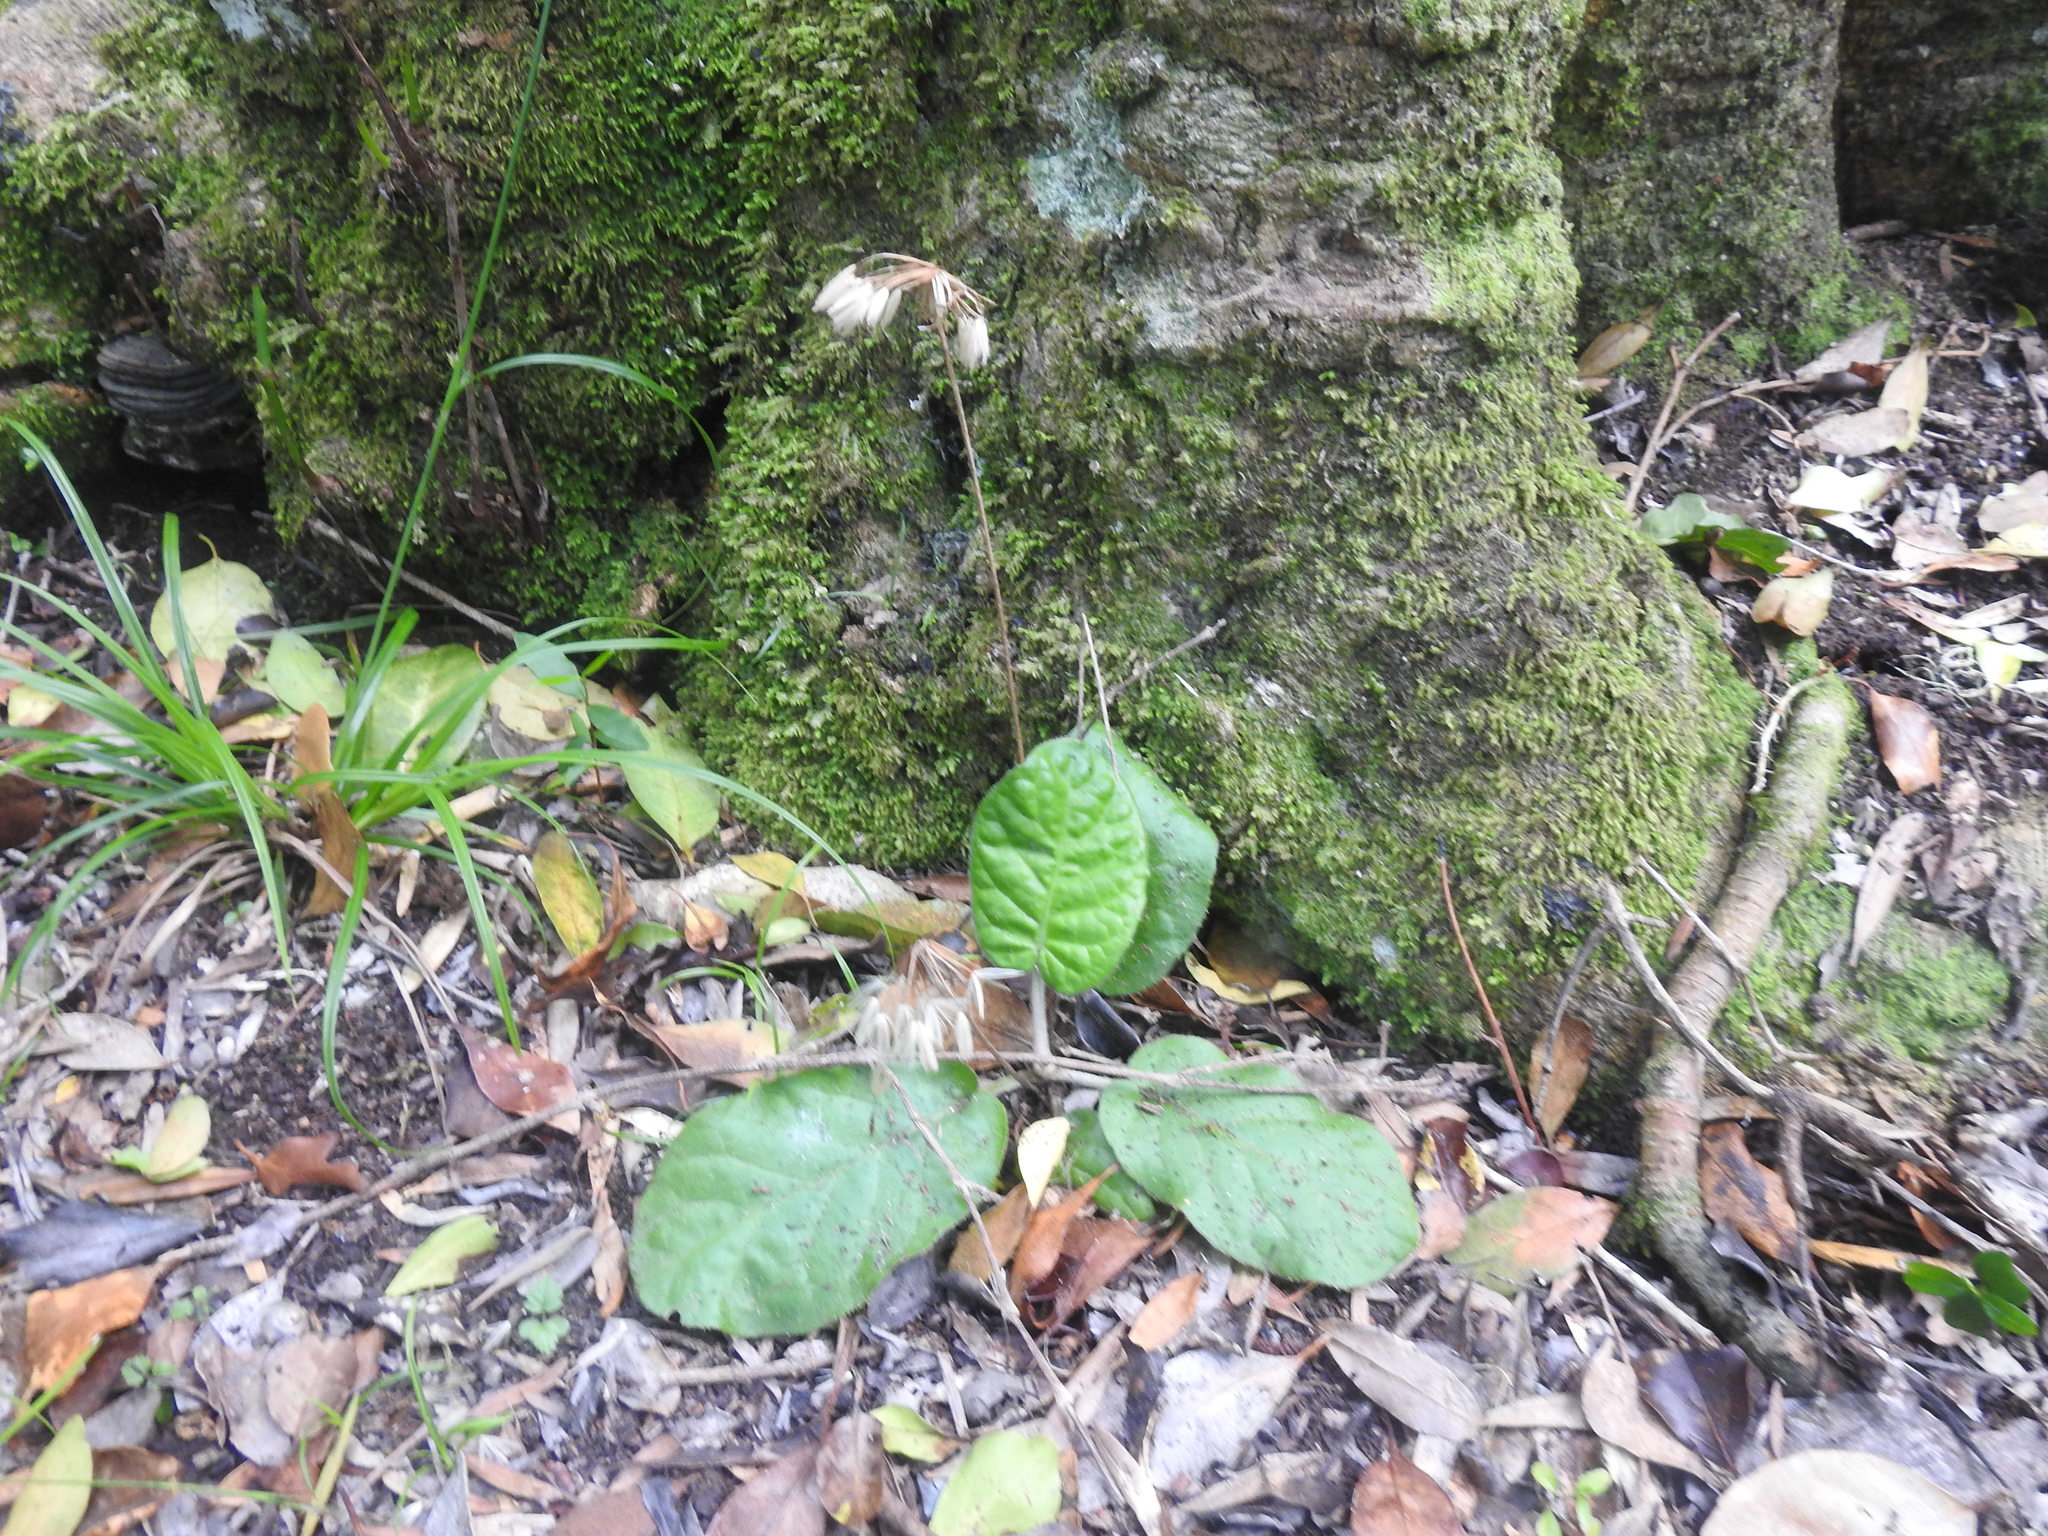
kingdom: Plantae
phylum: Tracheophyta
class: Magnoliopsida
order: Asterales
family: Asteraceae
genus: Piloselloides
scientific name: Piloselloides cordata
